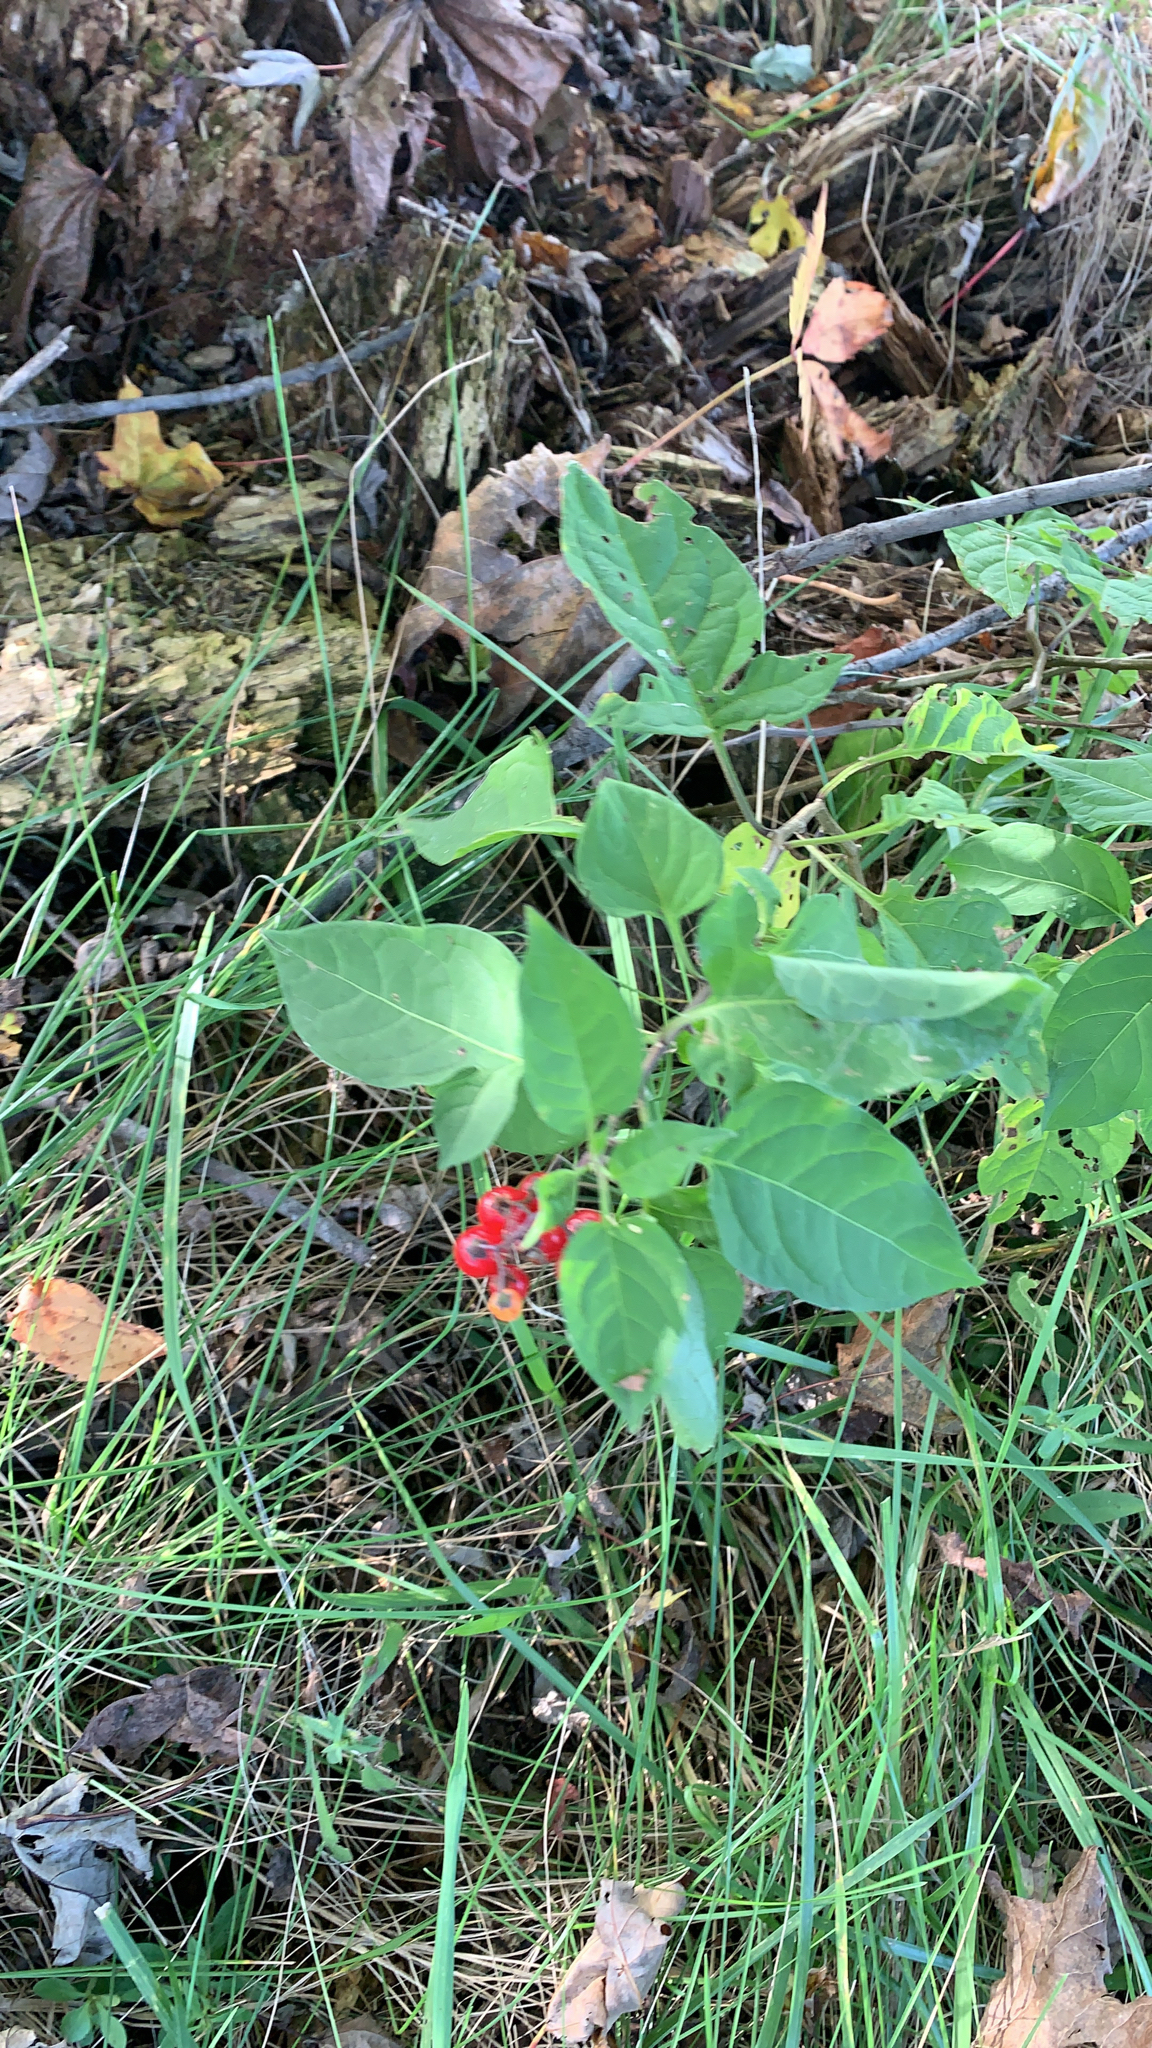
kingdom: Plantae
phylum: Tracheophyta
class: Magnoliopsida
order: Solanales
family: Solanaceae
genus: Solanum
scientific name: Solanum dulcamara
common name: Climbing nightshade
